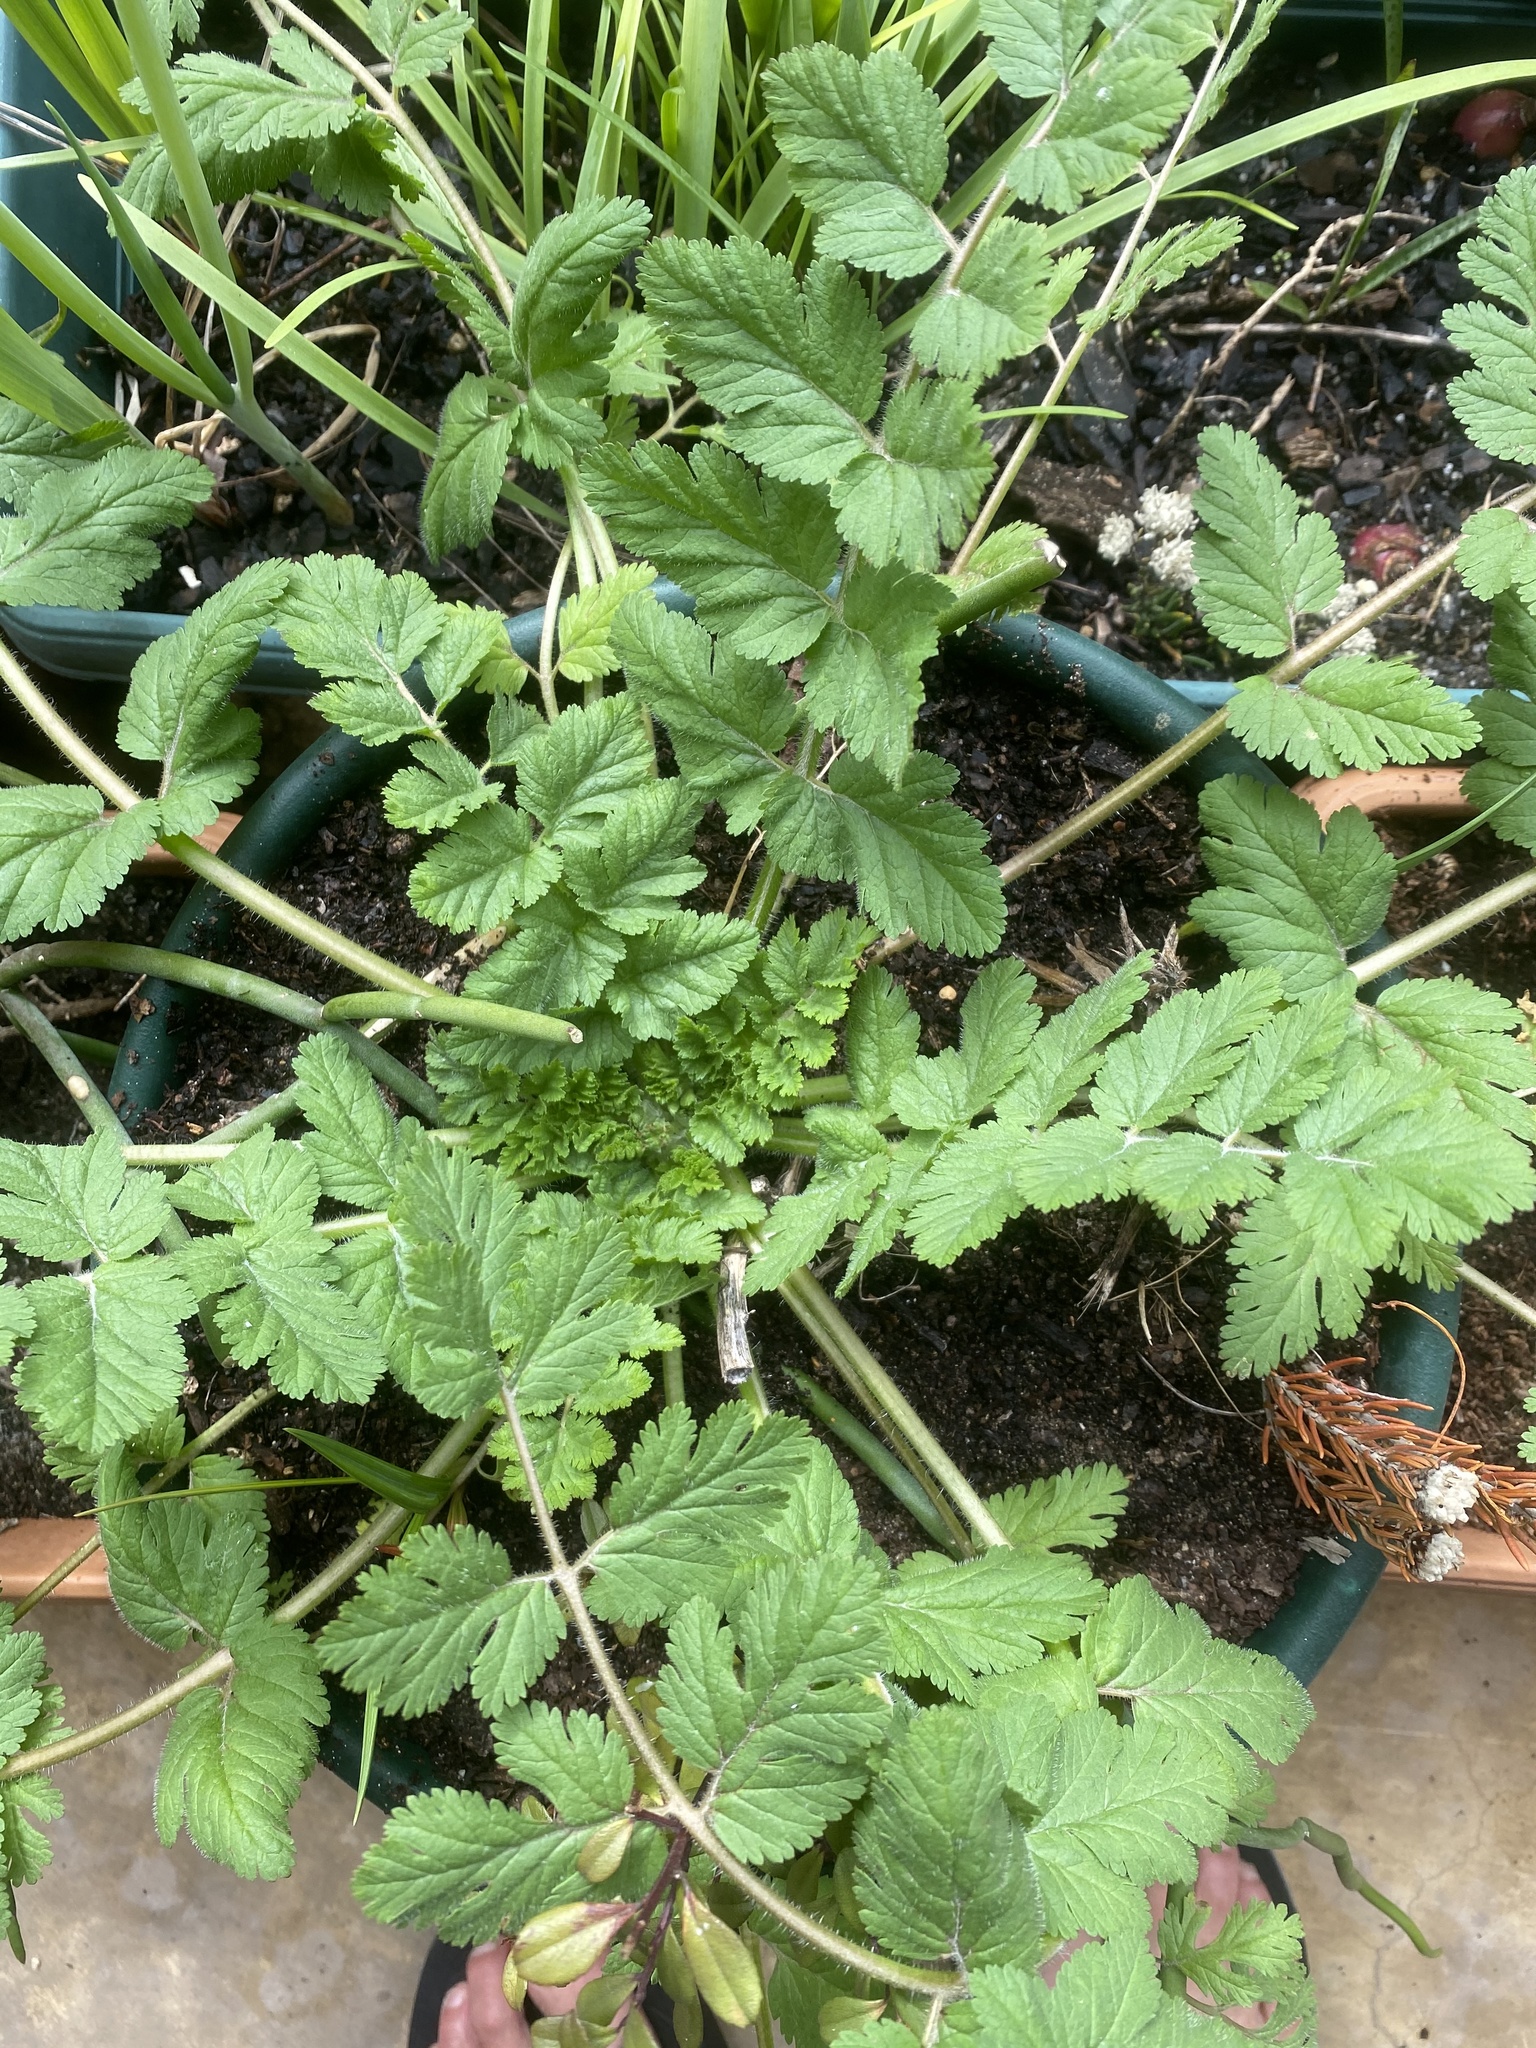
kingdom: Plantae
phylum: Tracheophyta
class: Magnoliopsida
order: Geraniales
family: Geraniaceae
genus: Erodium
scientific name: Erodium moschatum
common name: Musk stork's-bill
